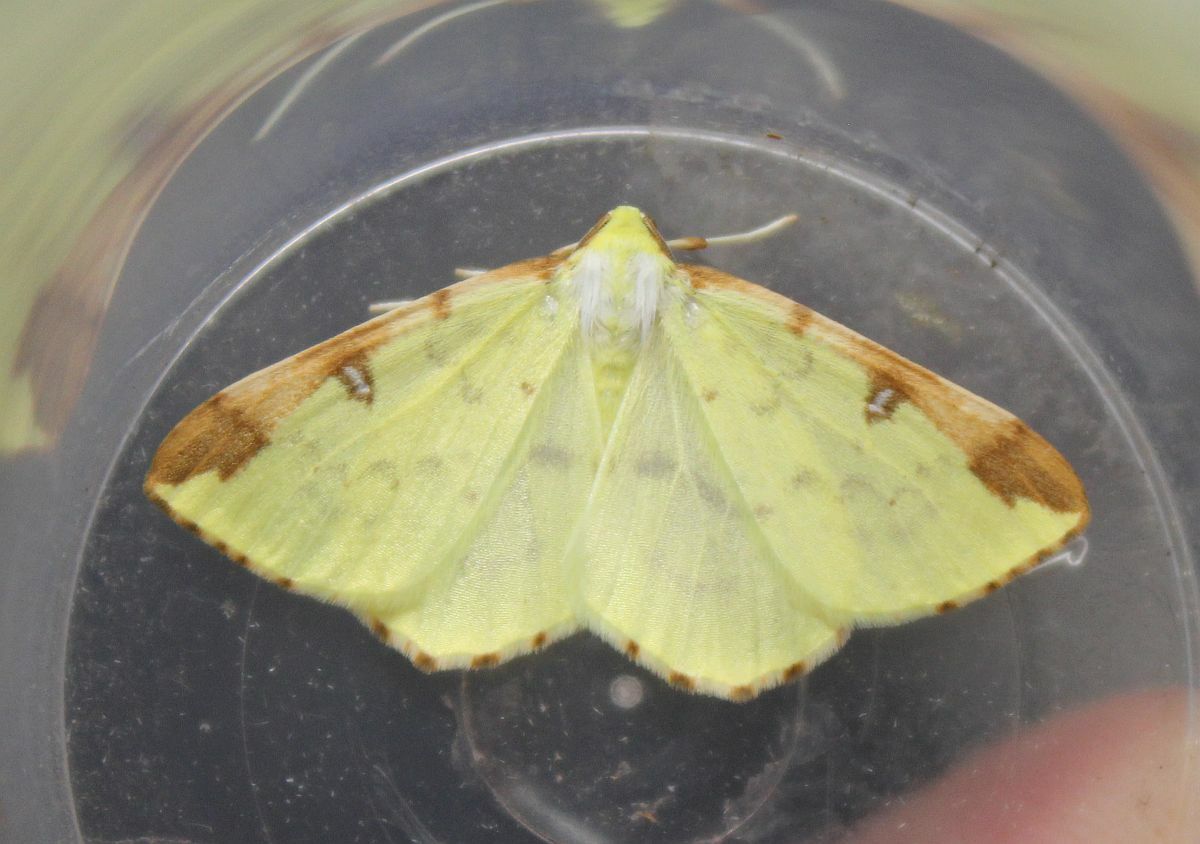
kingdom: Animalia
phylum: Arthropoda
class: Insecta
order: Lepidoptera
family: Geometridae
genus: Opisthograptis
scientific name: Opisthograptis luteolata
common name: Brimstone moth
